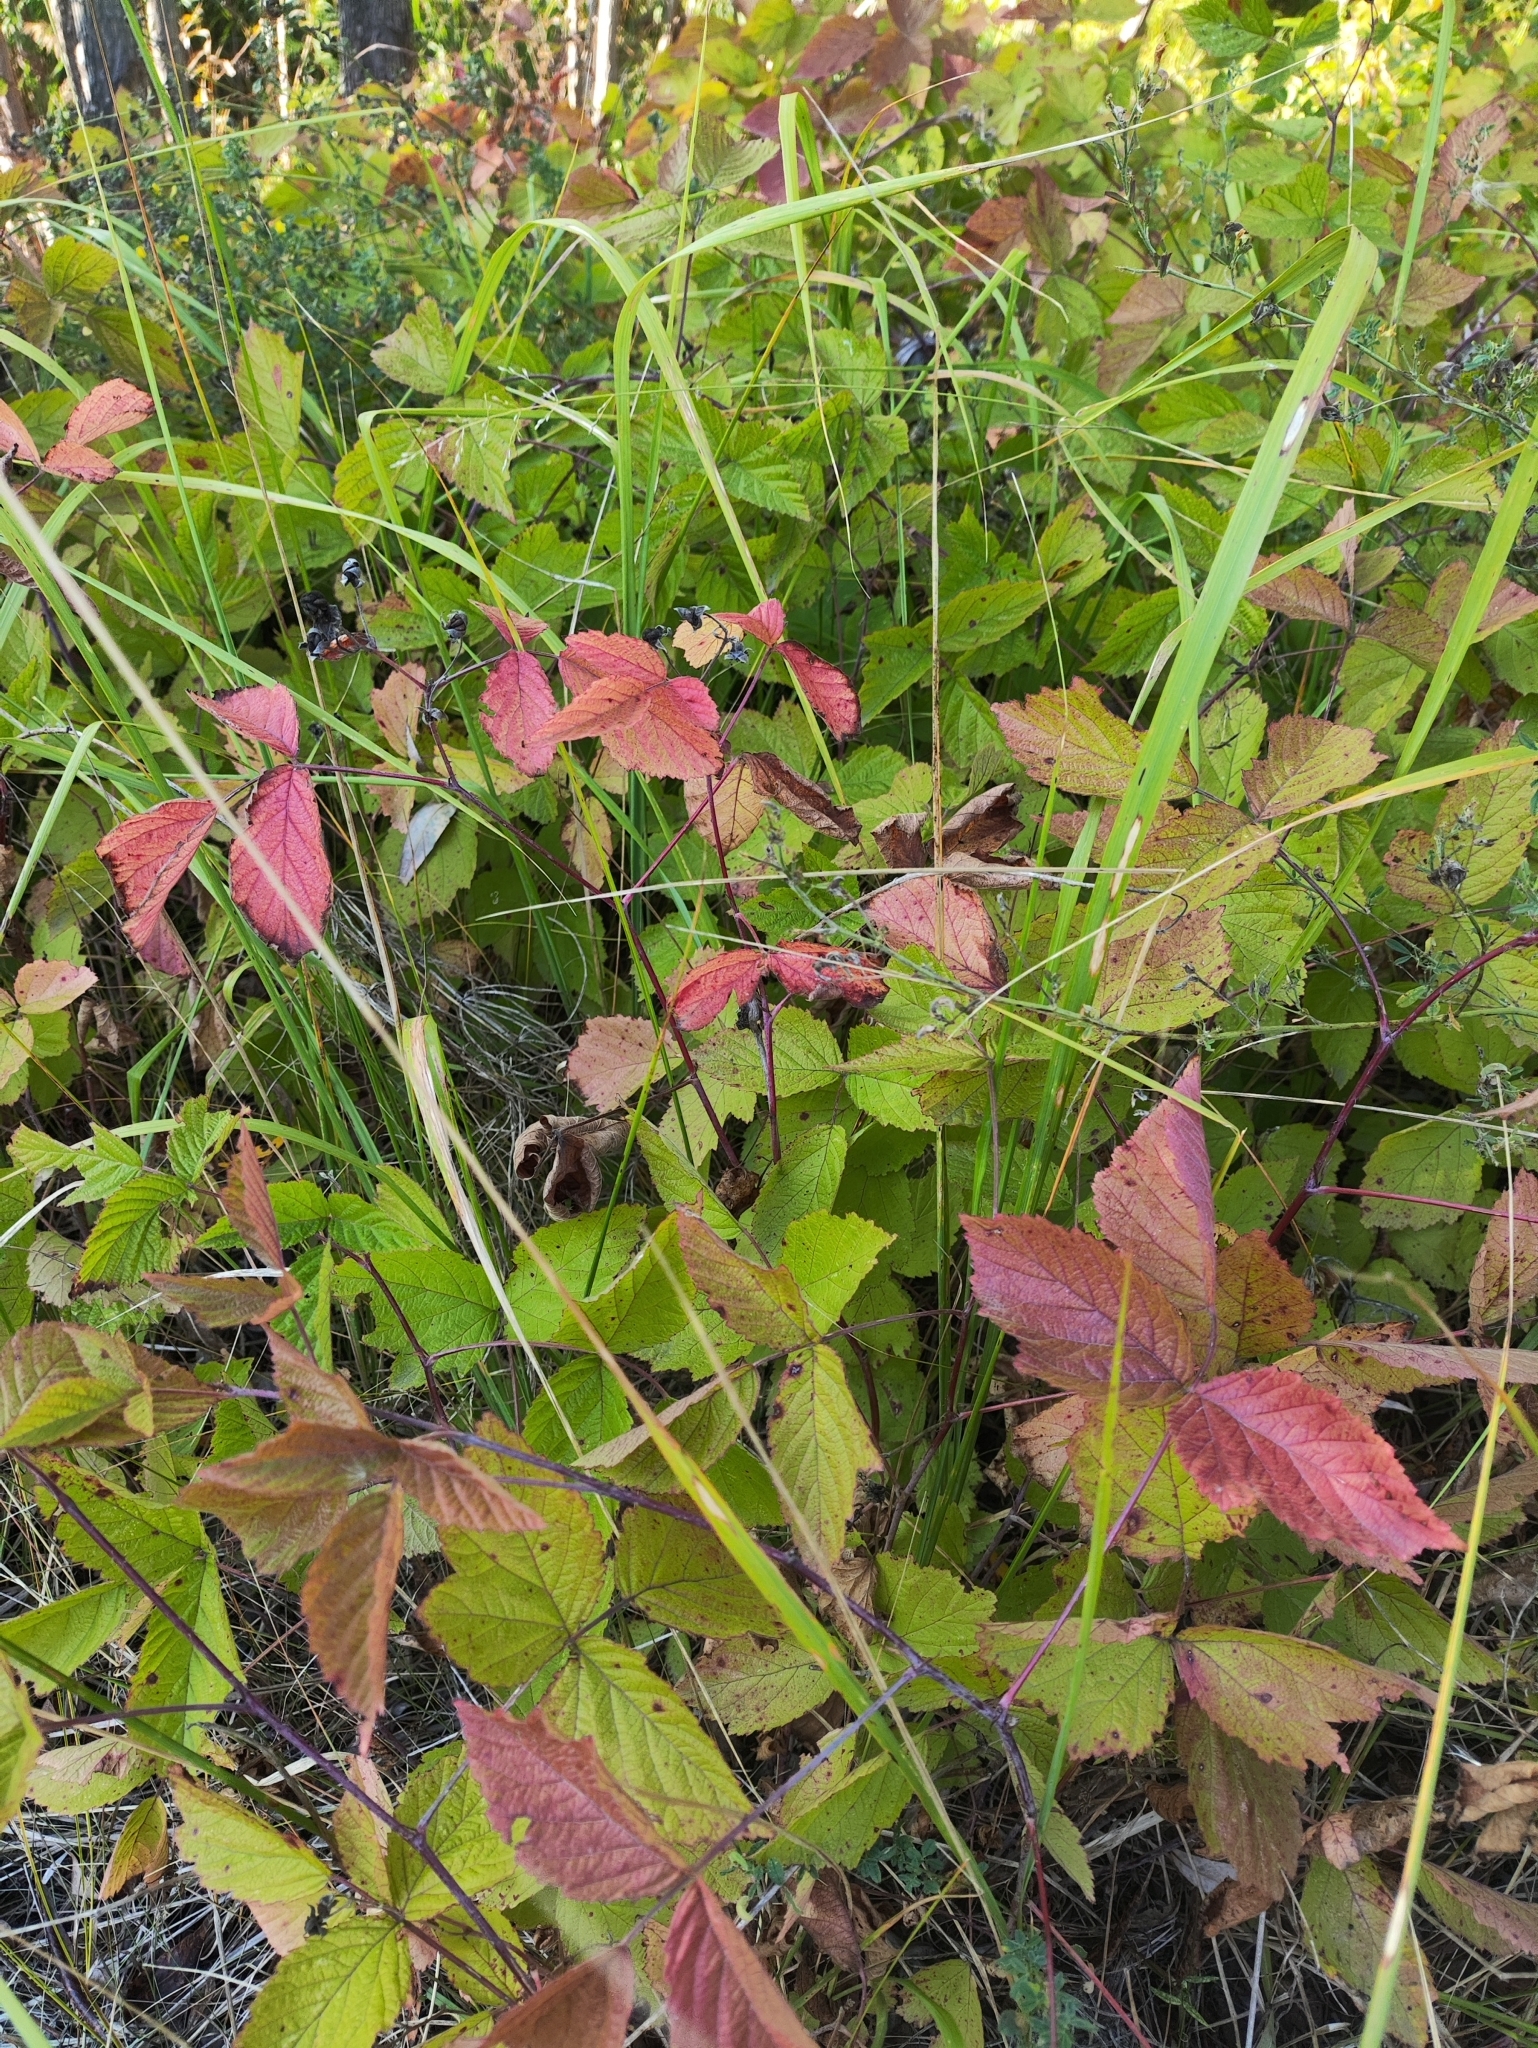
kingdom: Plantae
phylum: Tracheophyta
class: Magnoliopsida
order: Rosales
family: Rosaceae
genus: Rubus
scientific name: Rubus caesius
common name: Dewberry
